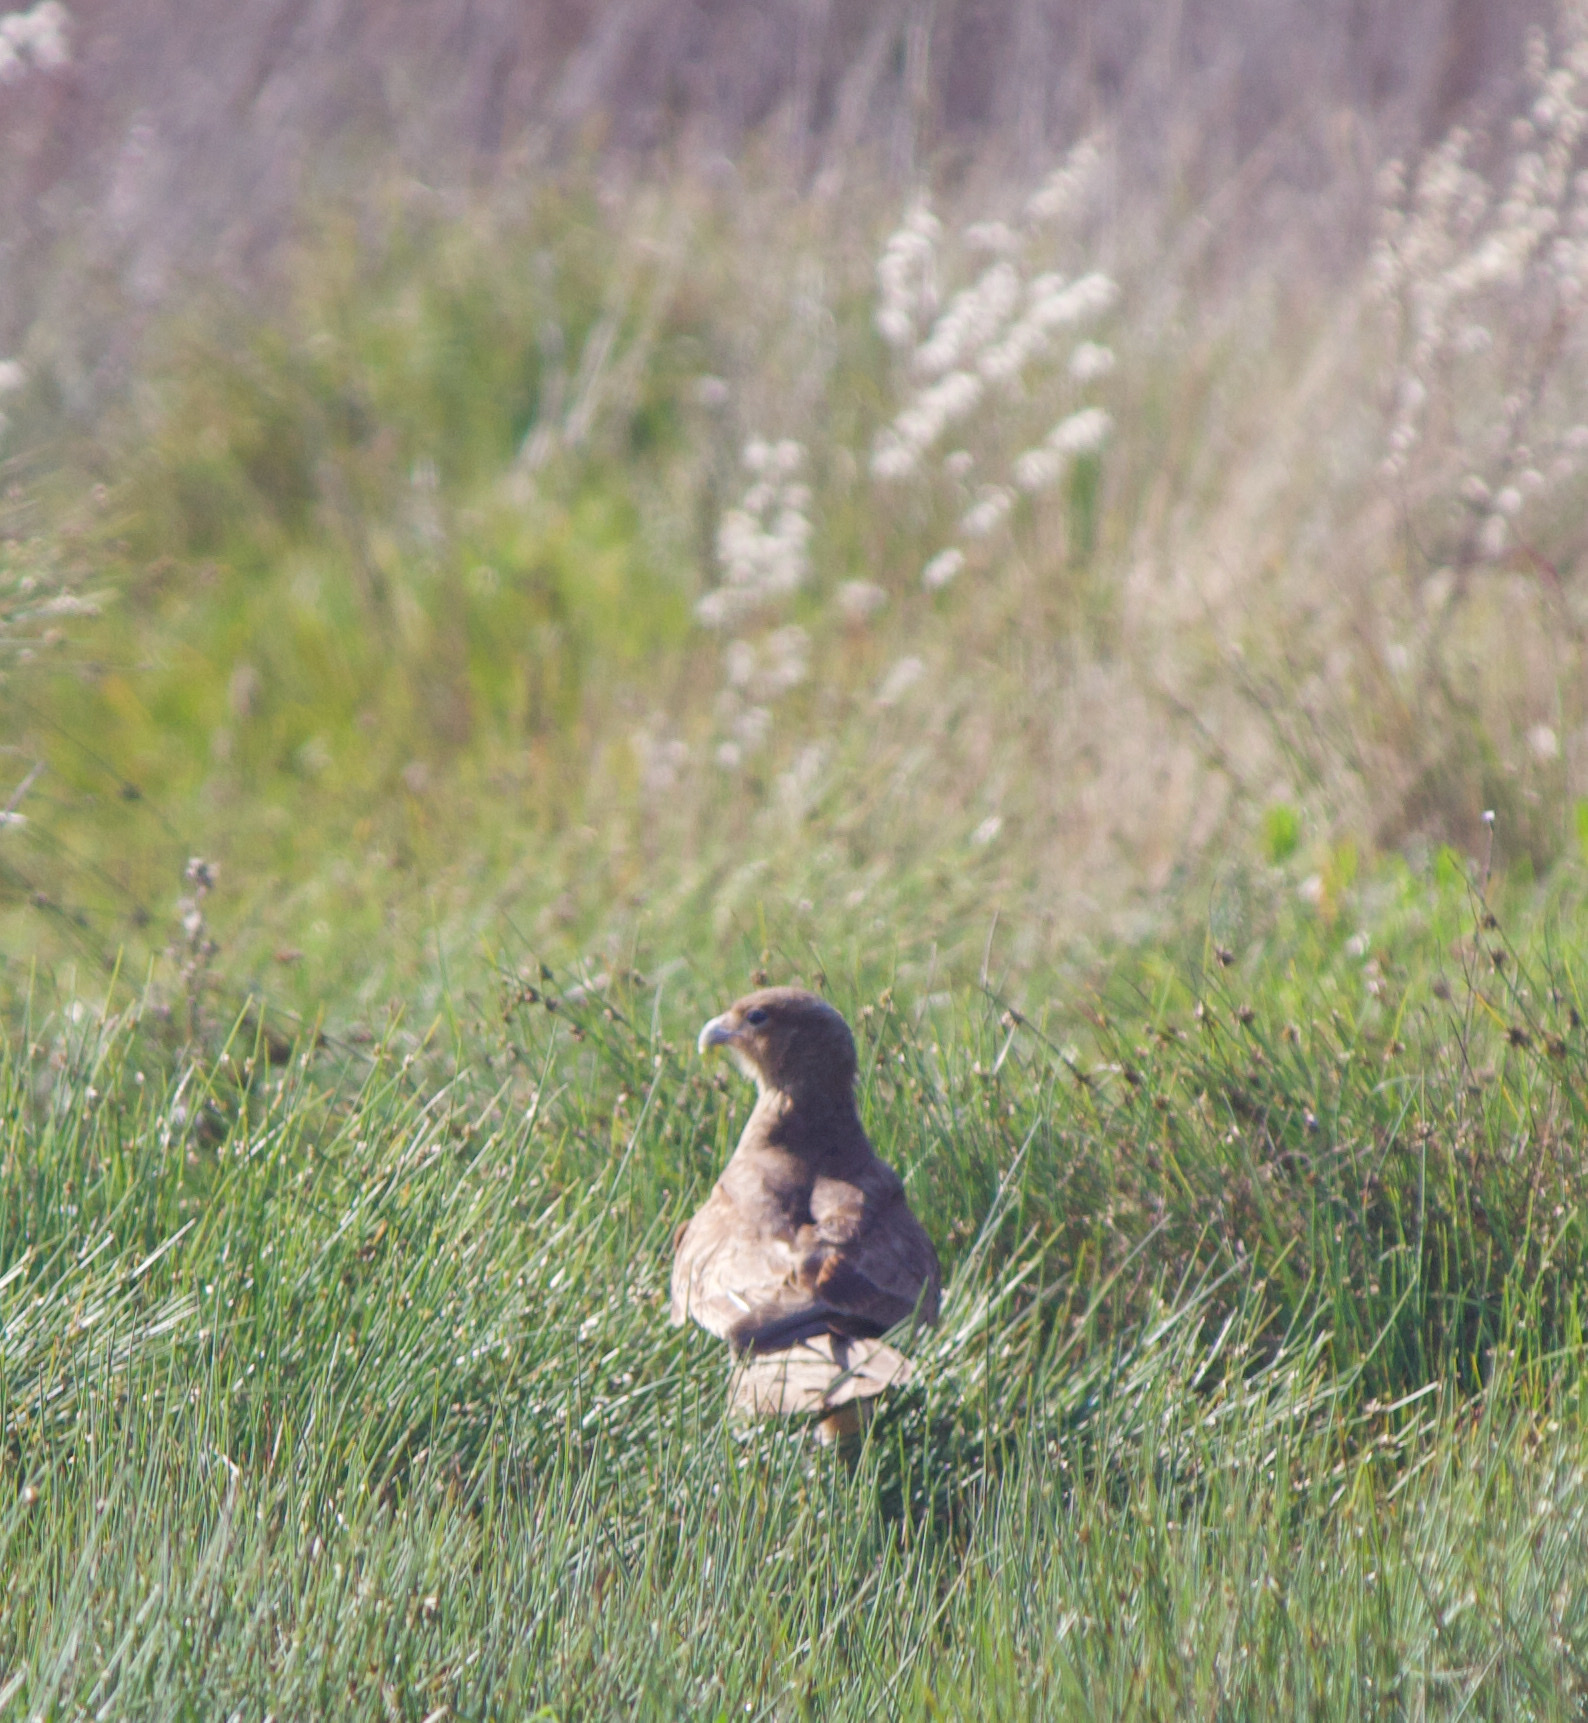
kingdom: Animalia
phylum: Chordata
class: Aves
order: Falconiformes
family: Falconidae
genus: Daptrius
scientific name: Daptrius
